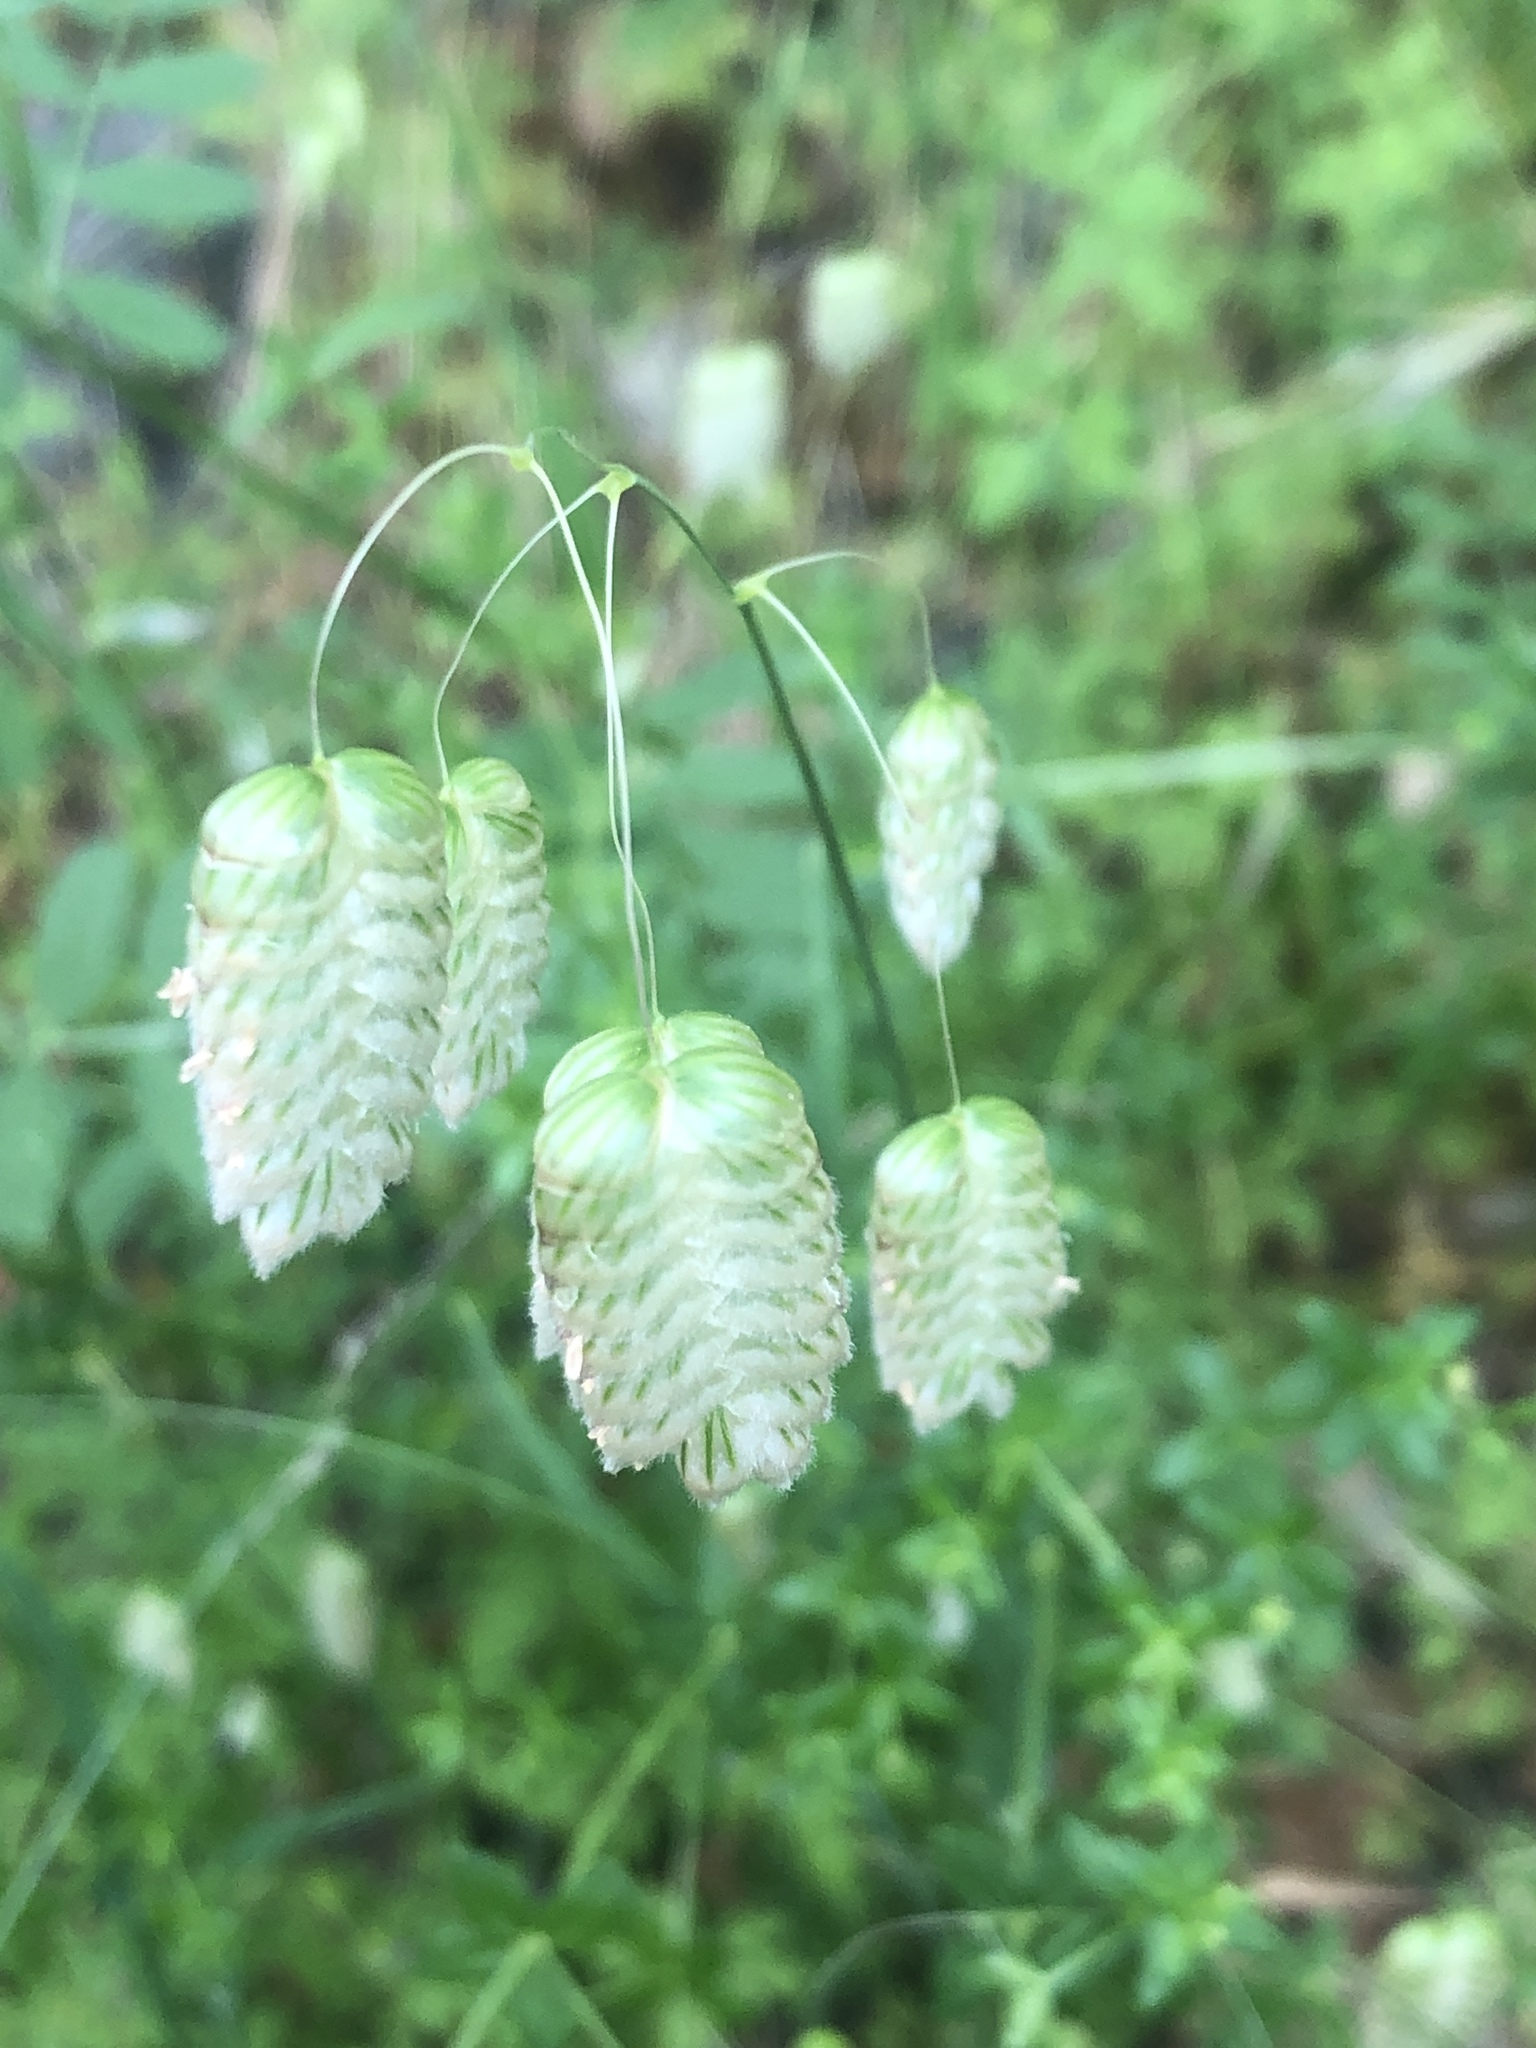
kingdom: Plantae
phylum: Tracheophyta
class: Liliopsida
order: Poales
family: Poaceae
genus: Briza
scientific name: Briza maxima
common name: Big quakinggrass
